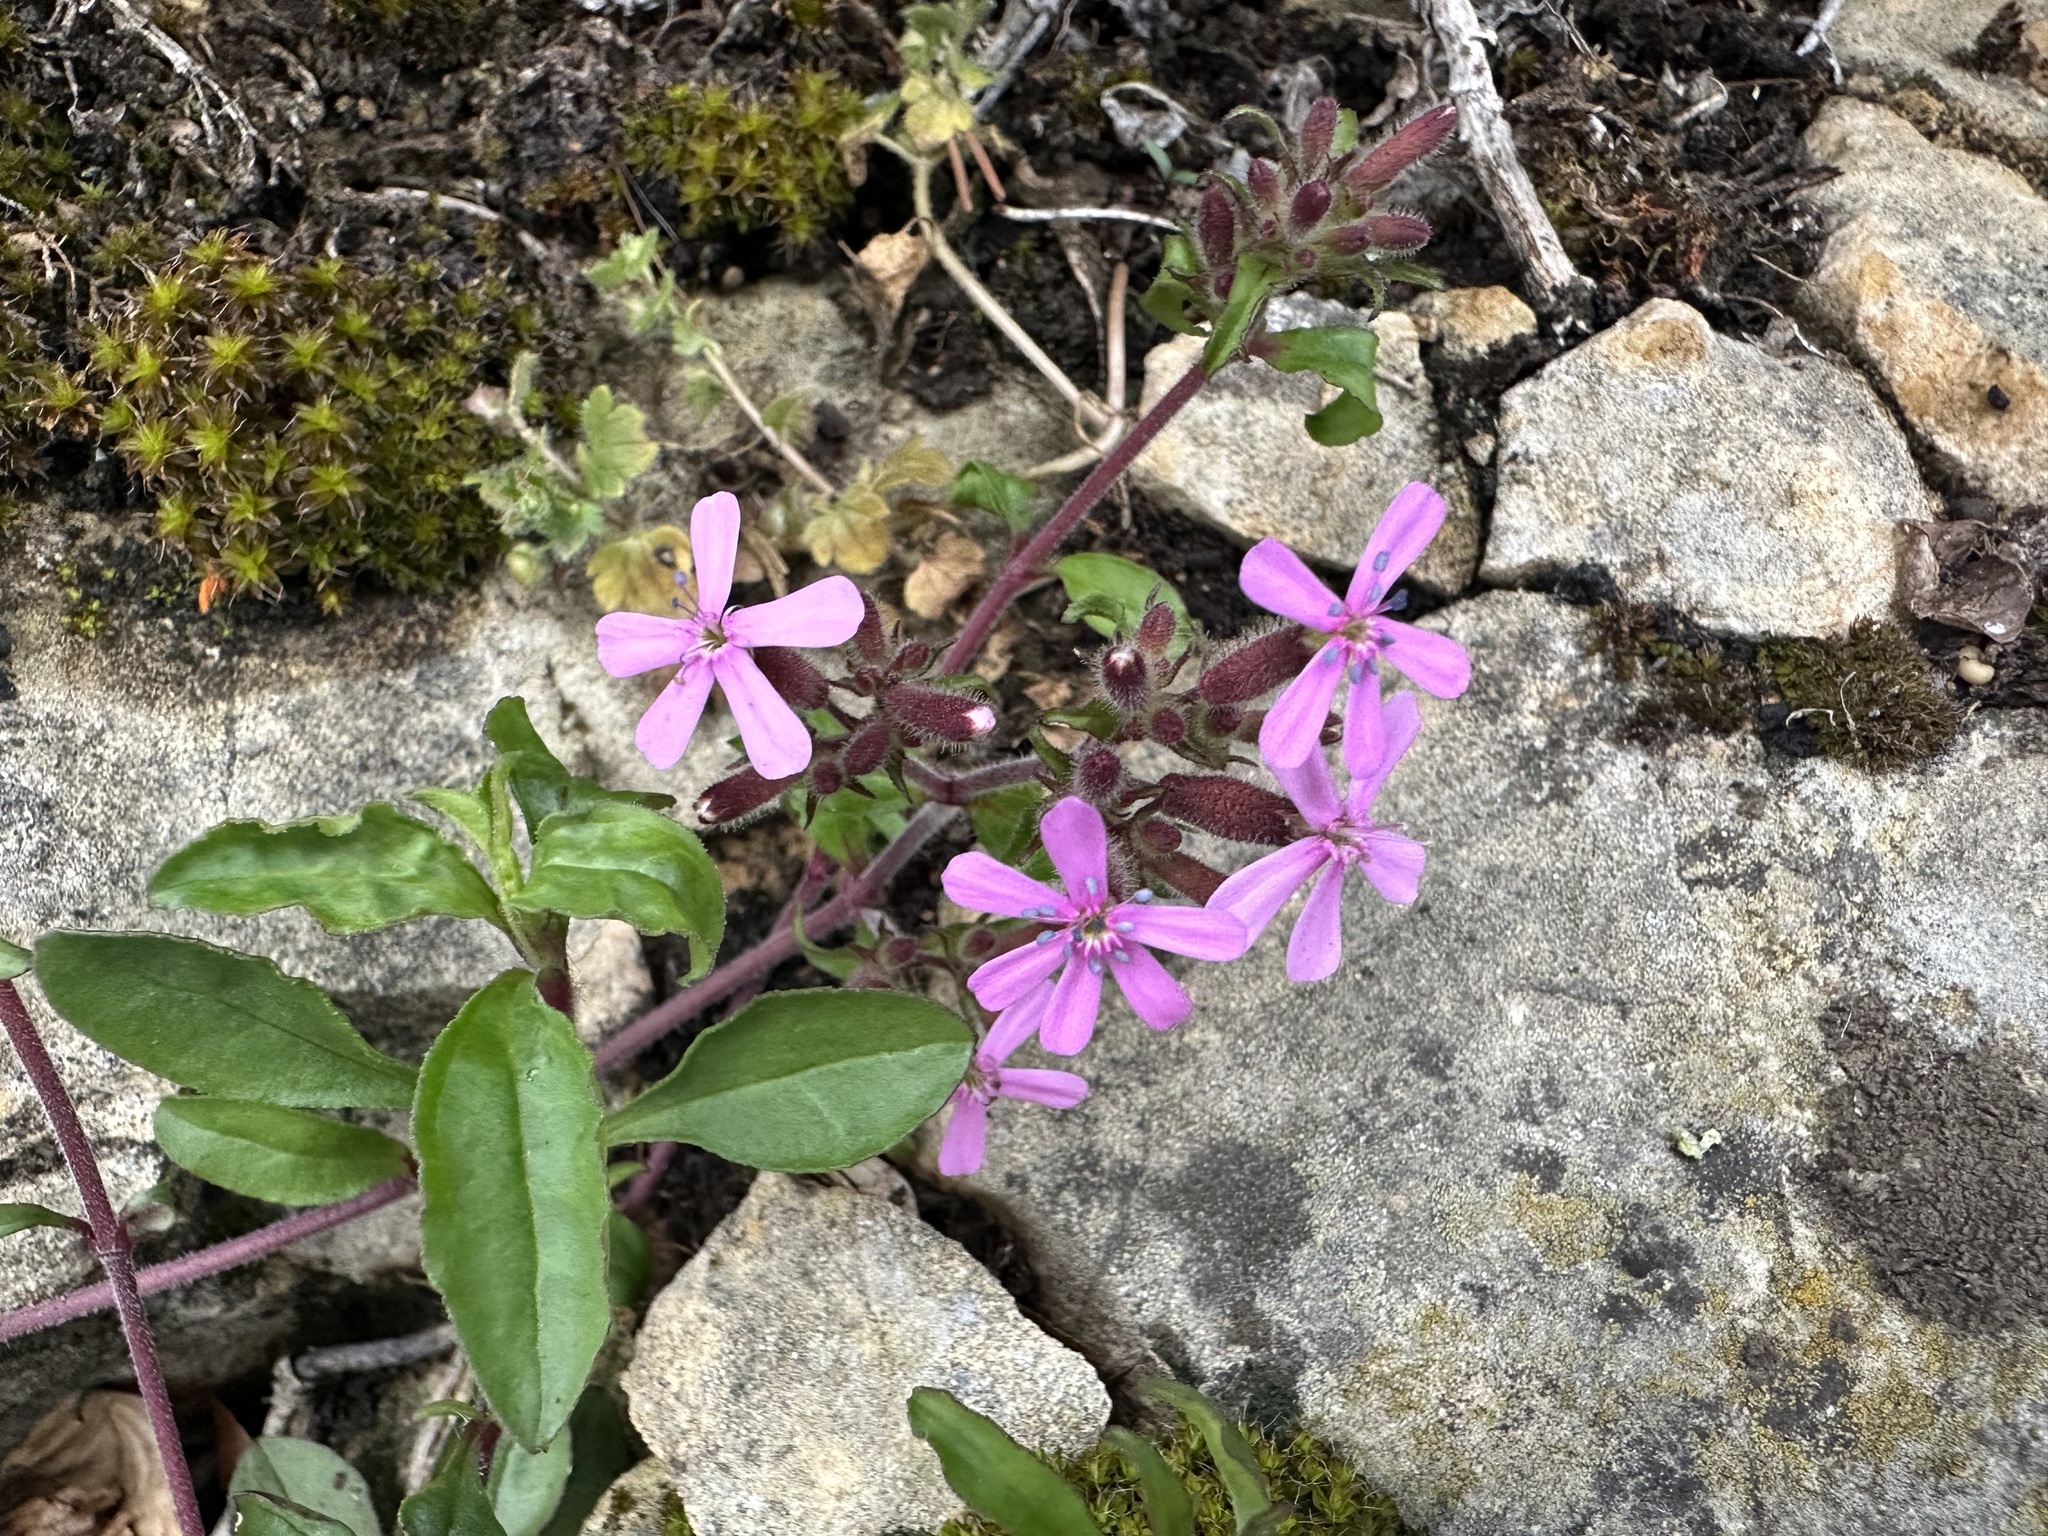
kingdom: Plantae
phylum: Tracheophyta
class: Magnoliopsida
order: Caryophyllales
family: Caryophyllaceae
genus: Saponaria
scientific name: Saponaria ocymoides
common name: Rock soapwort
